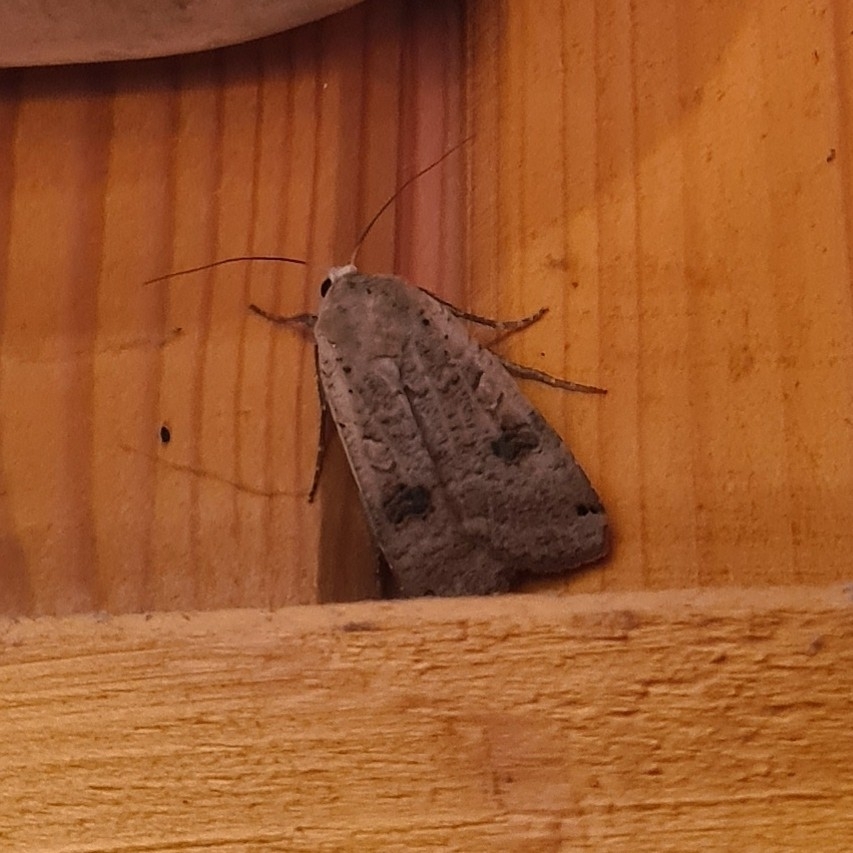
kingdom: Animalia
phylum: Arthropoda
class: Insecta
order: Lepidoptera
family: Noctuidae
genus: Xestia
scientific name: Xestia baja
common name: Dotted clay
